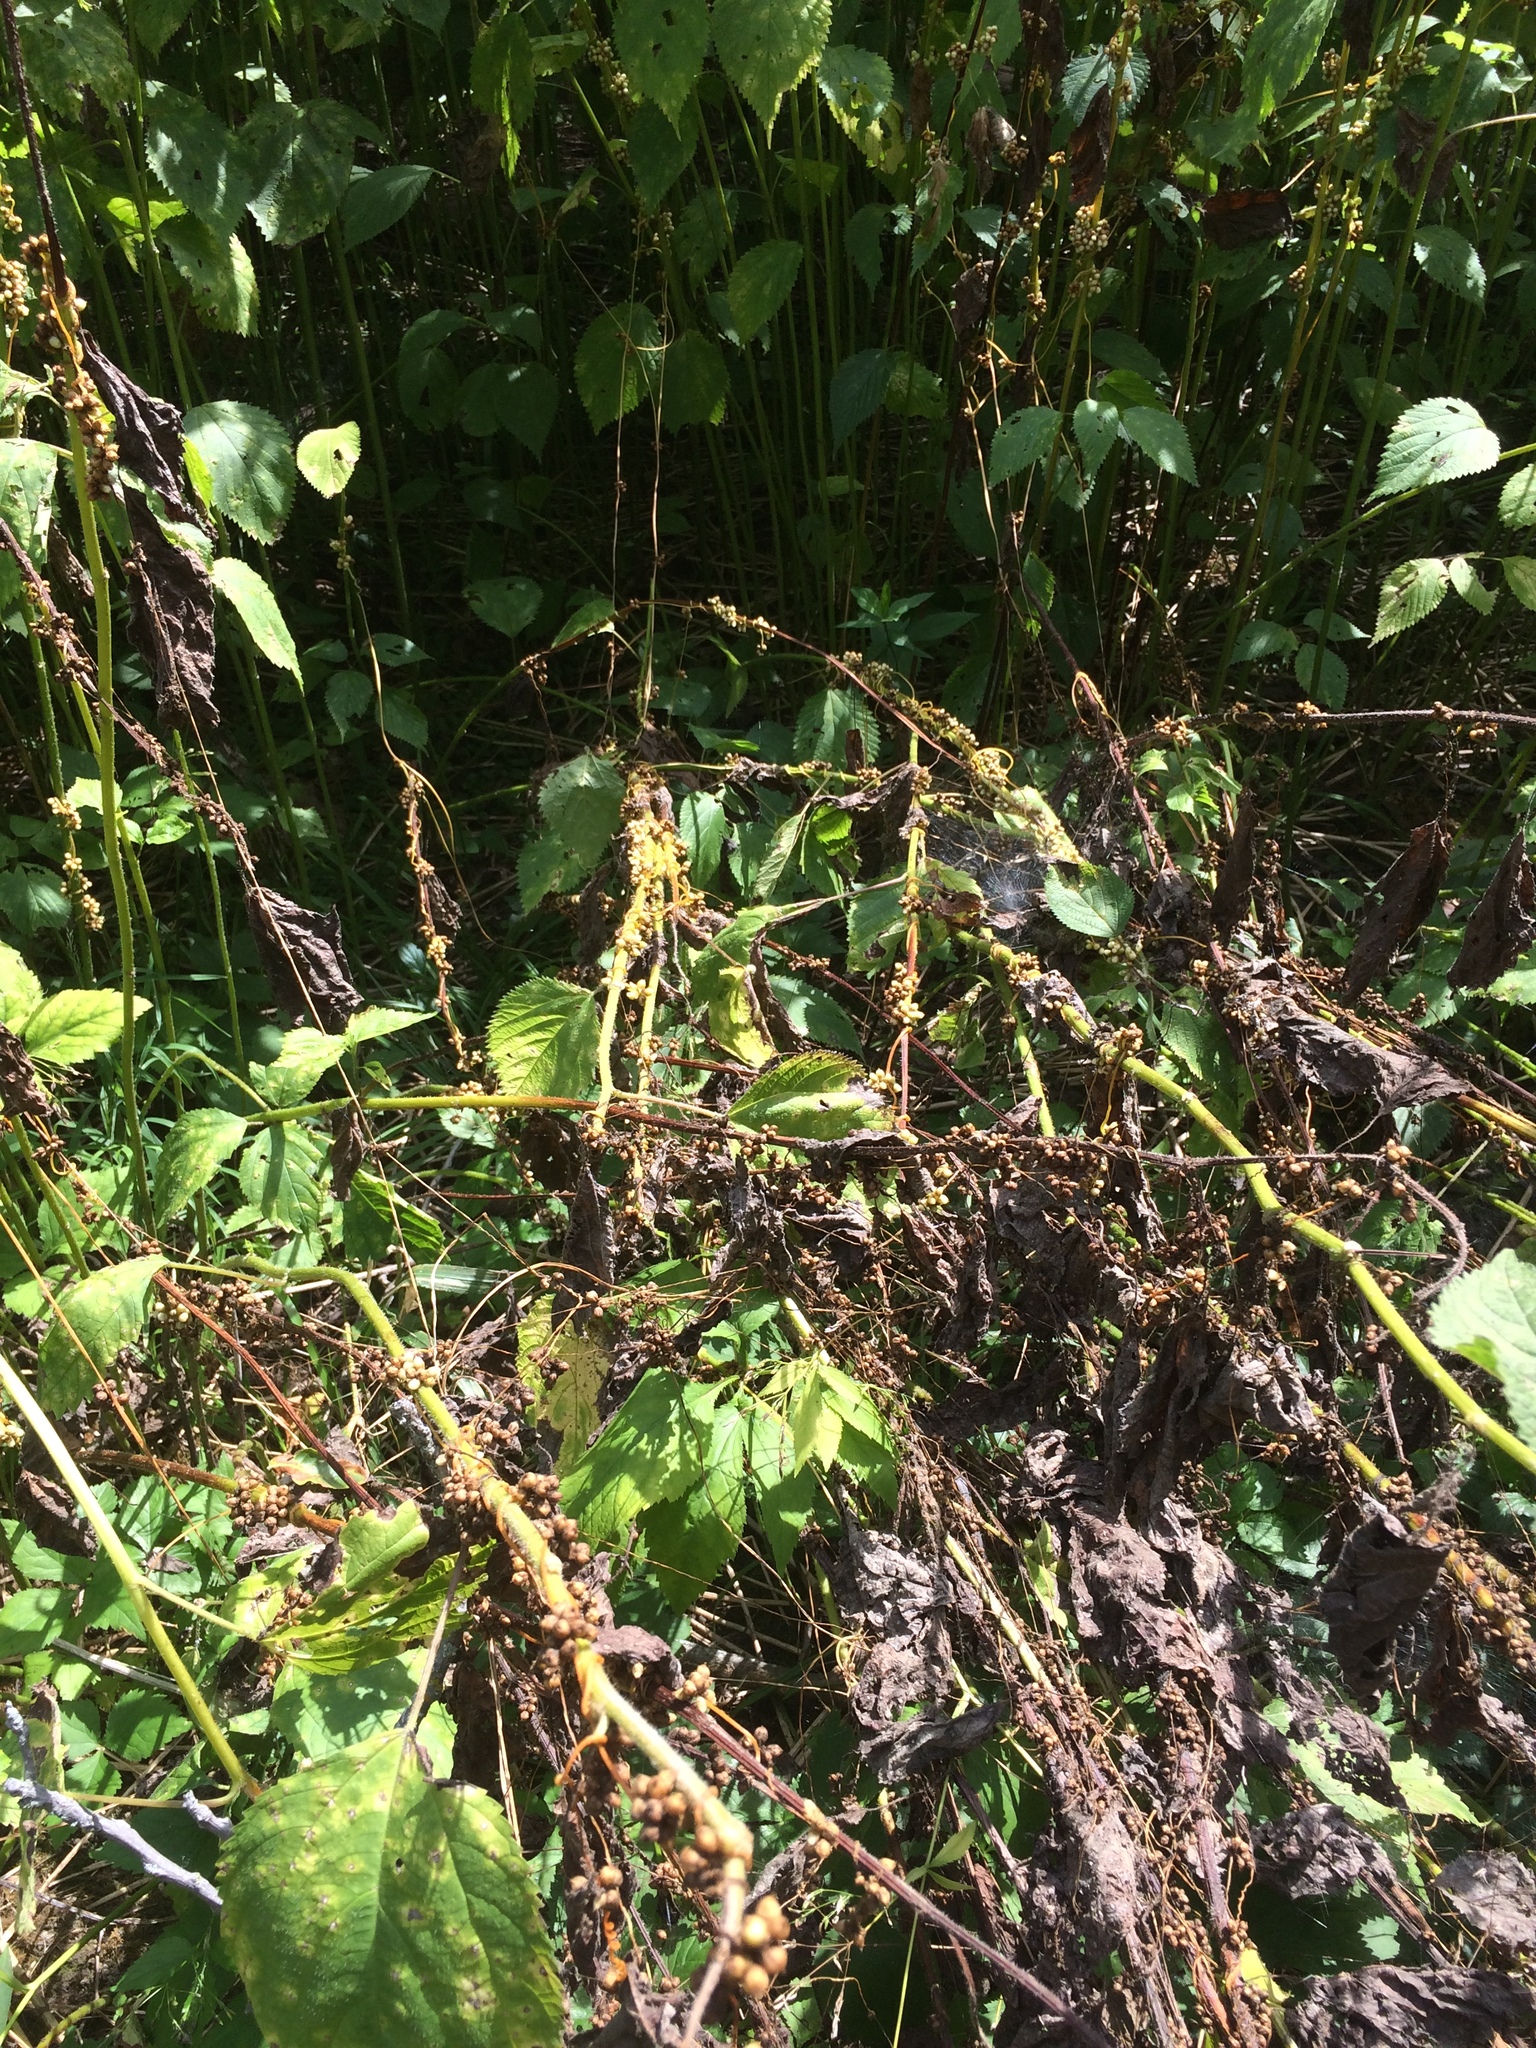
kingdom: Plantae
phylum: Tracheophyta
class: Magnoliopsida
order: Solanales
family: Convolvulaceae
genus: Cuscuta
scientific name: Cuscuta gronovii
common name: Common dodder
